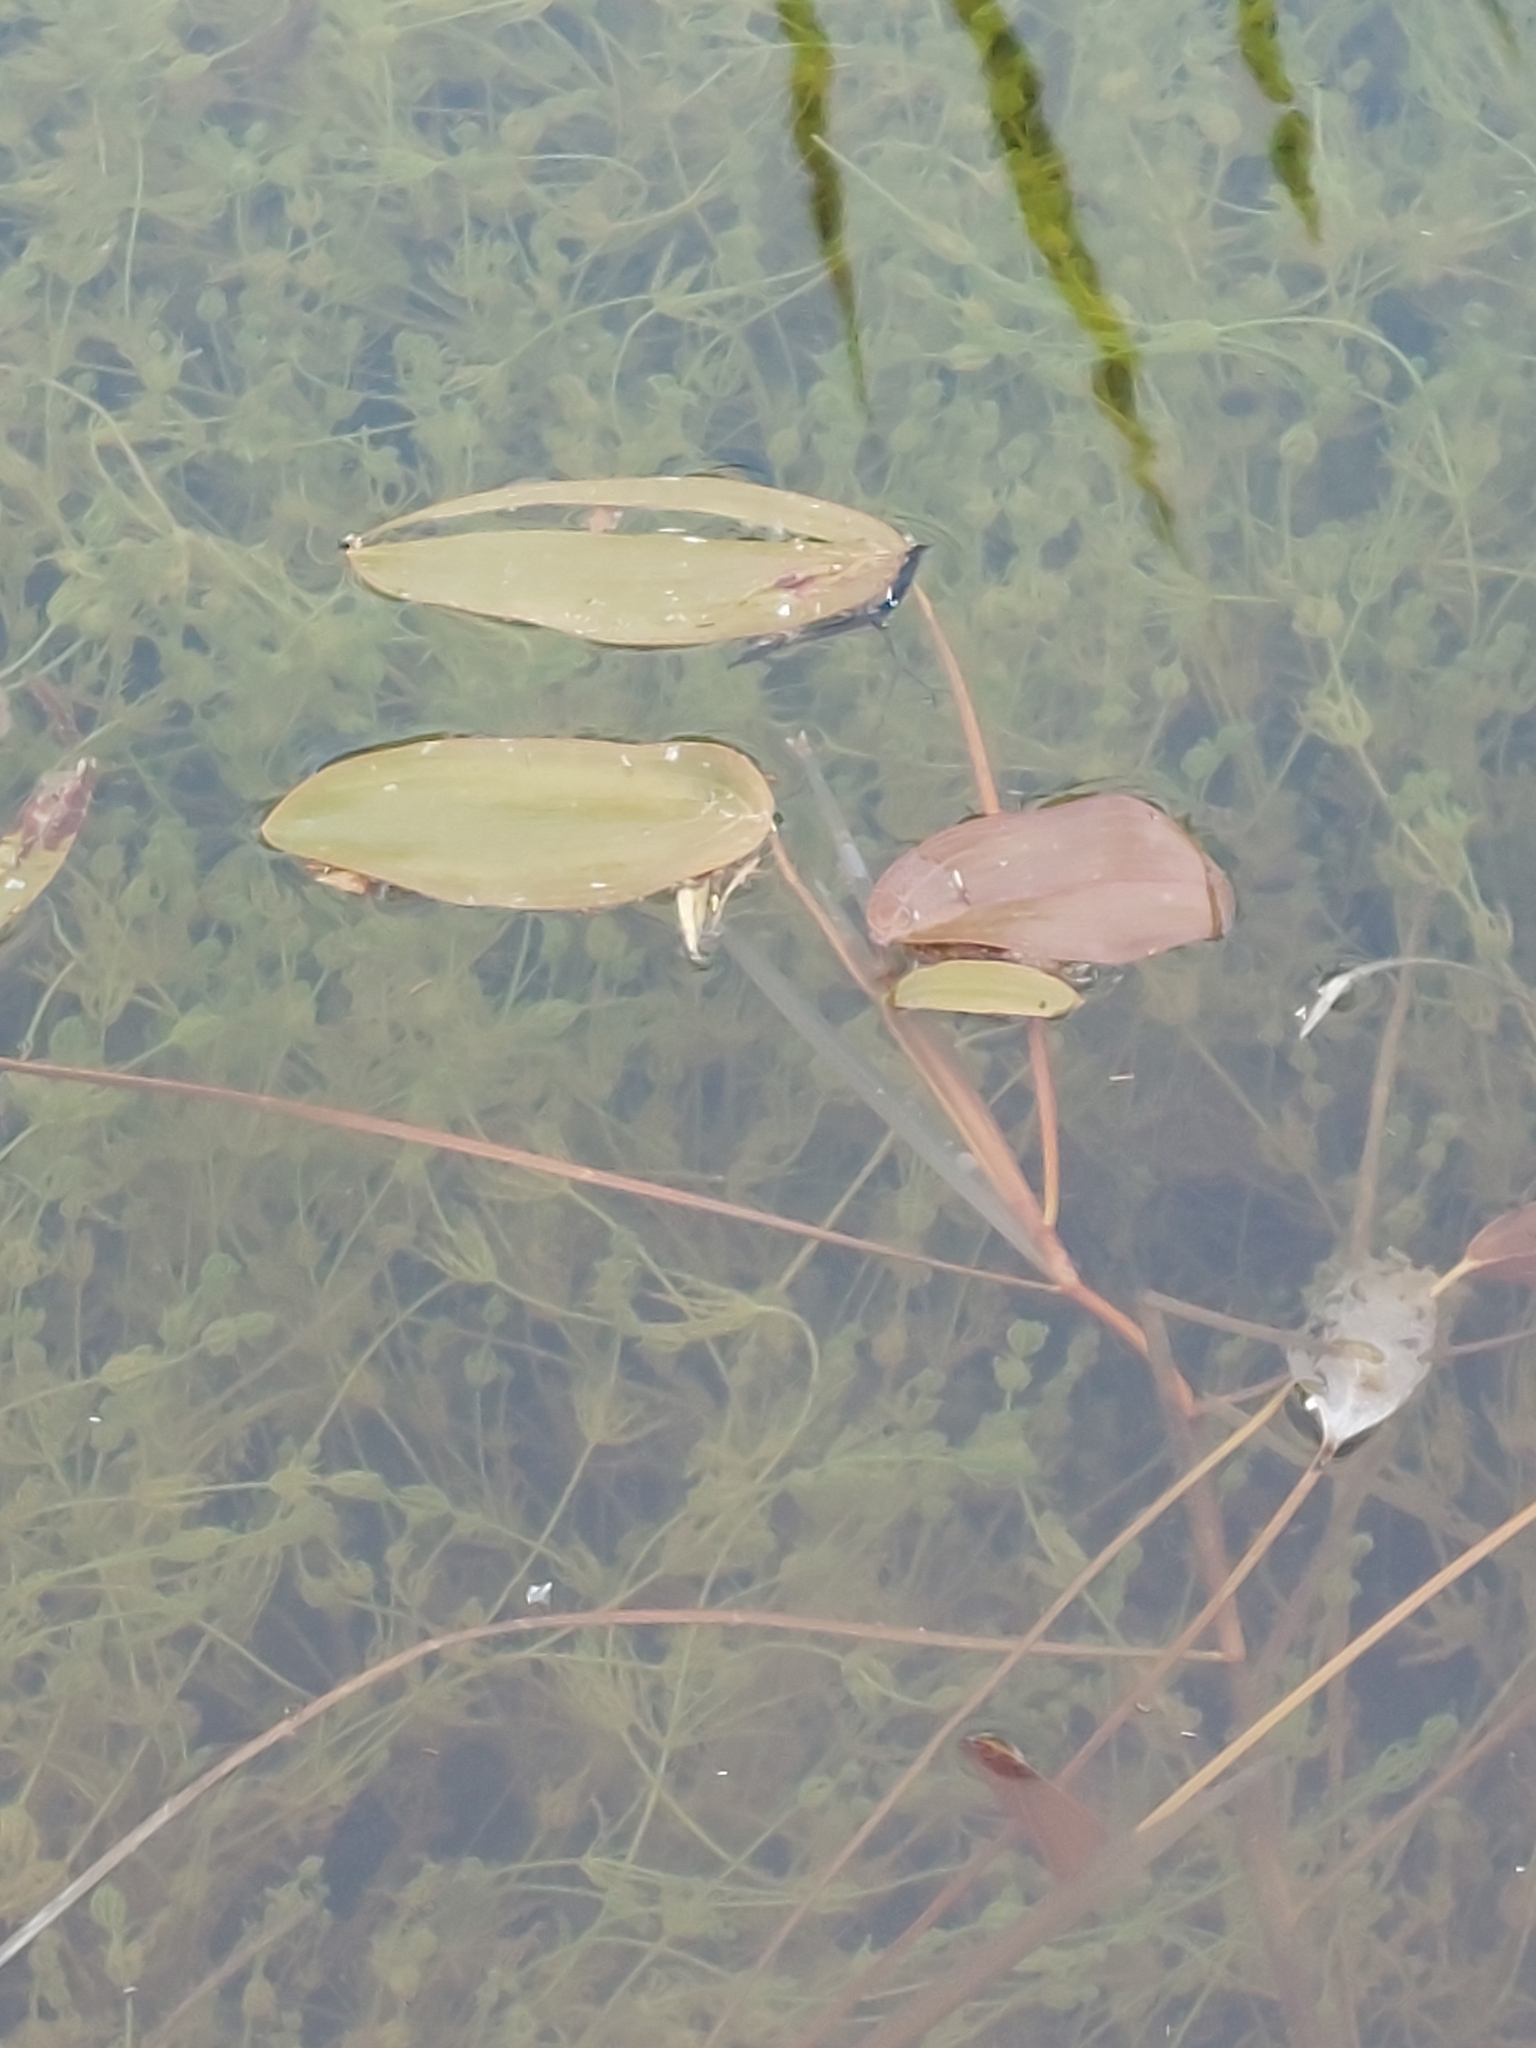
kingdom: Plantae
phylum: Tracheophyta
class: Liliopsida
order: Alismatales
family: Potamogetonaceae
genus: Potamogeton
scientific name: Potamogeton natans
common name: Broad-leaved pondweed
